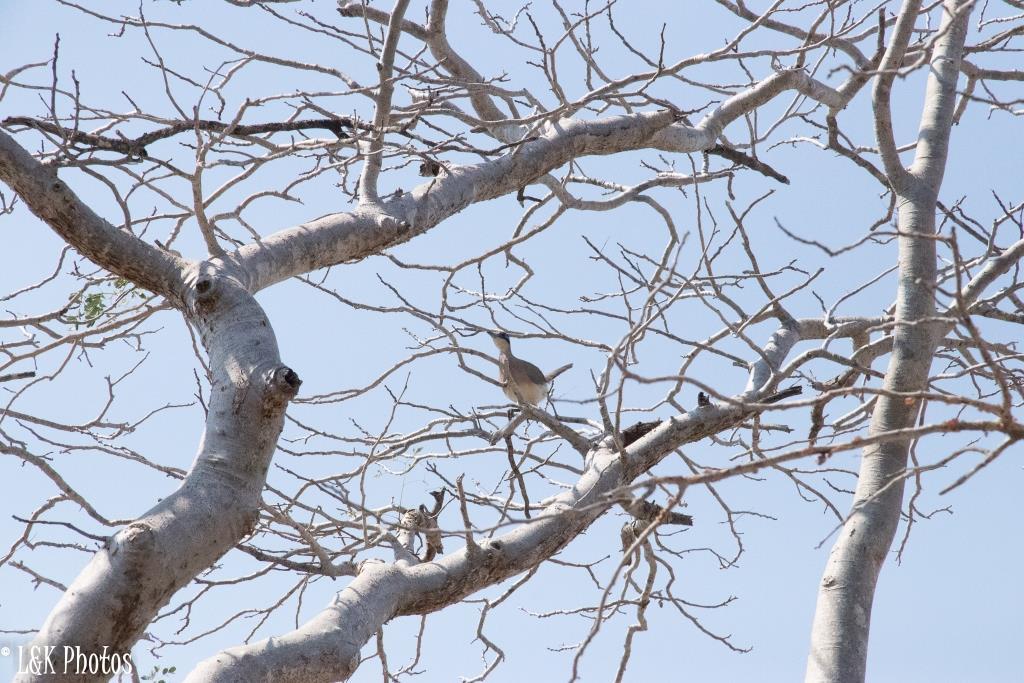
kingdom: Animalia
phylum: Chordata
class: Aves
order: Cuculiformes
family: Cuculidae
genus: Coua
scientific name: Coua ruficeps
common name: Red-capped coua
